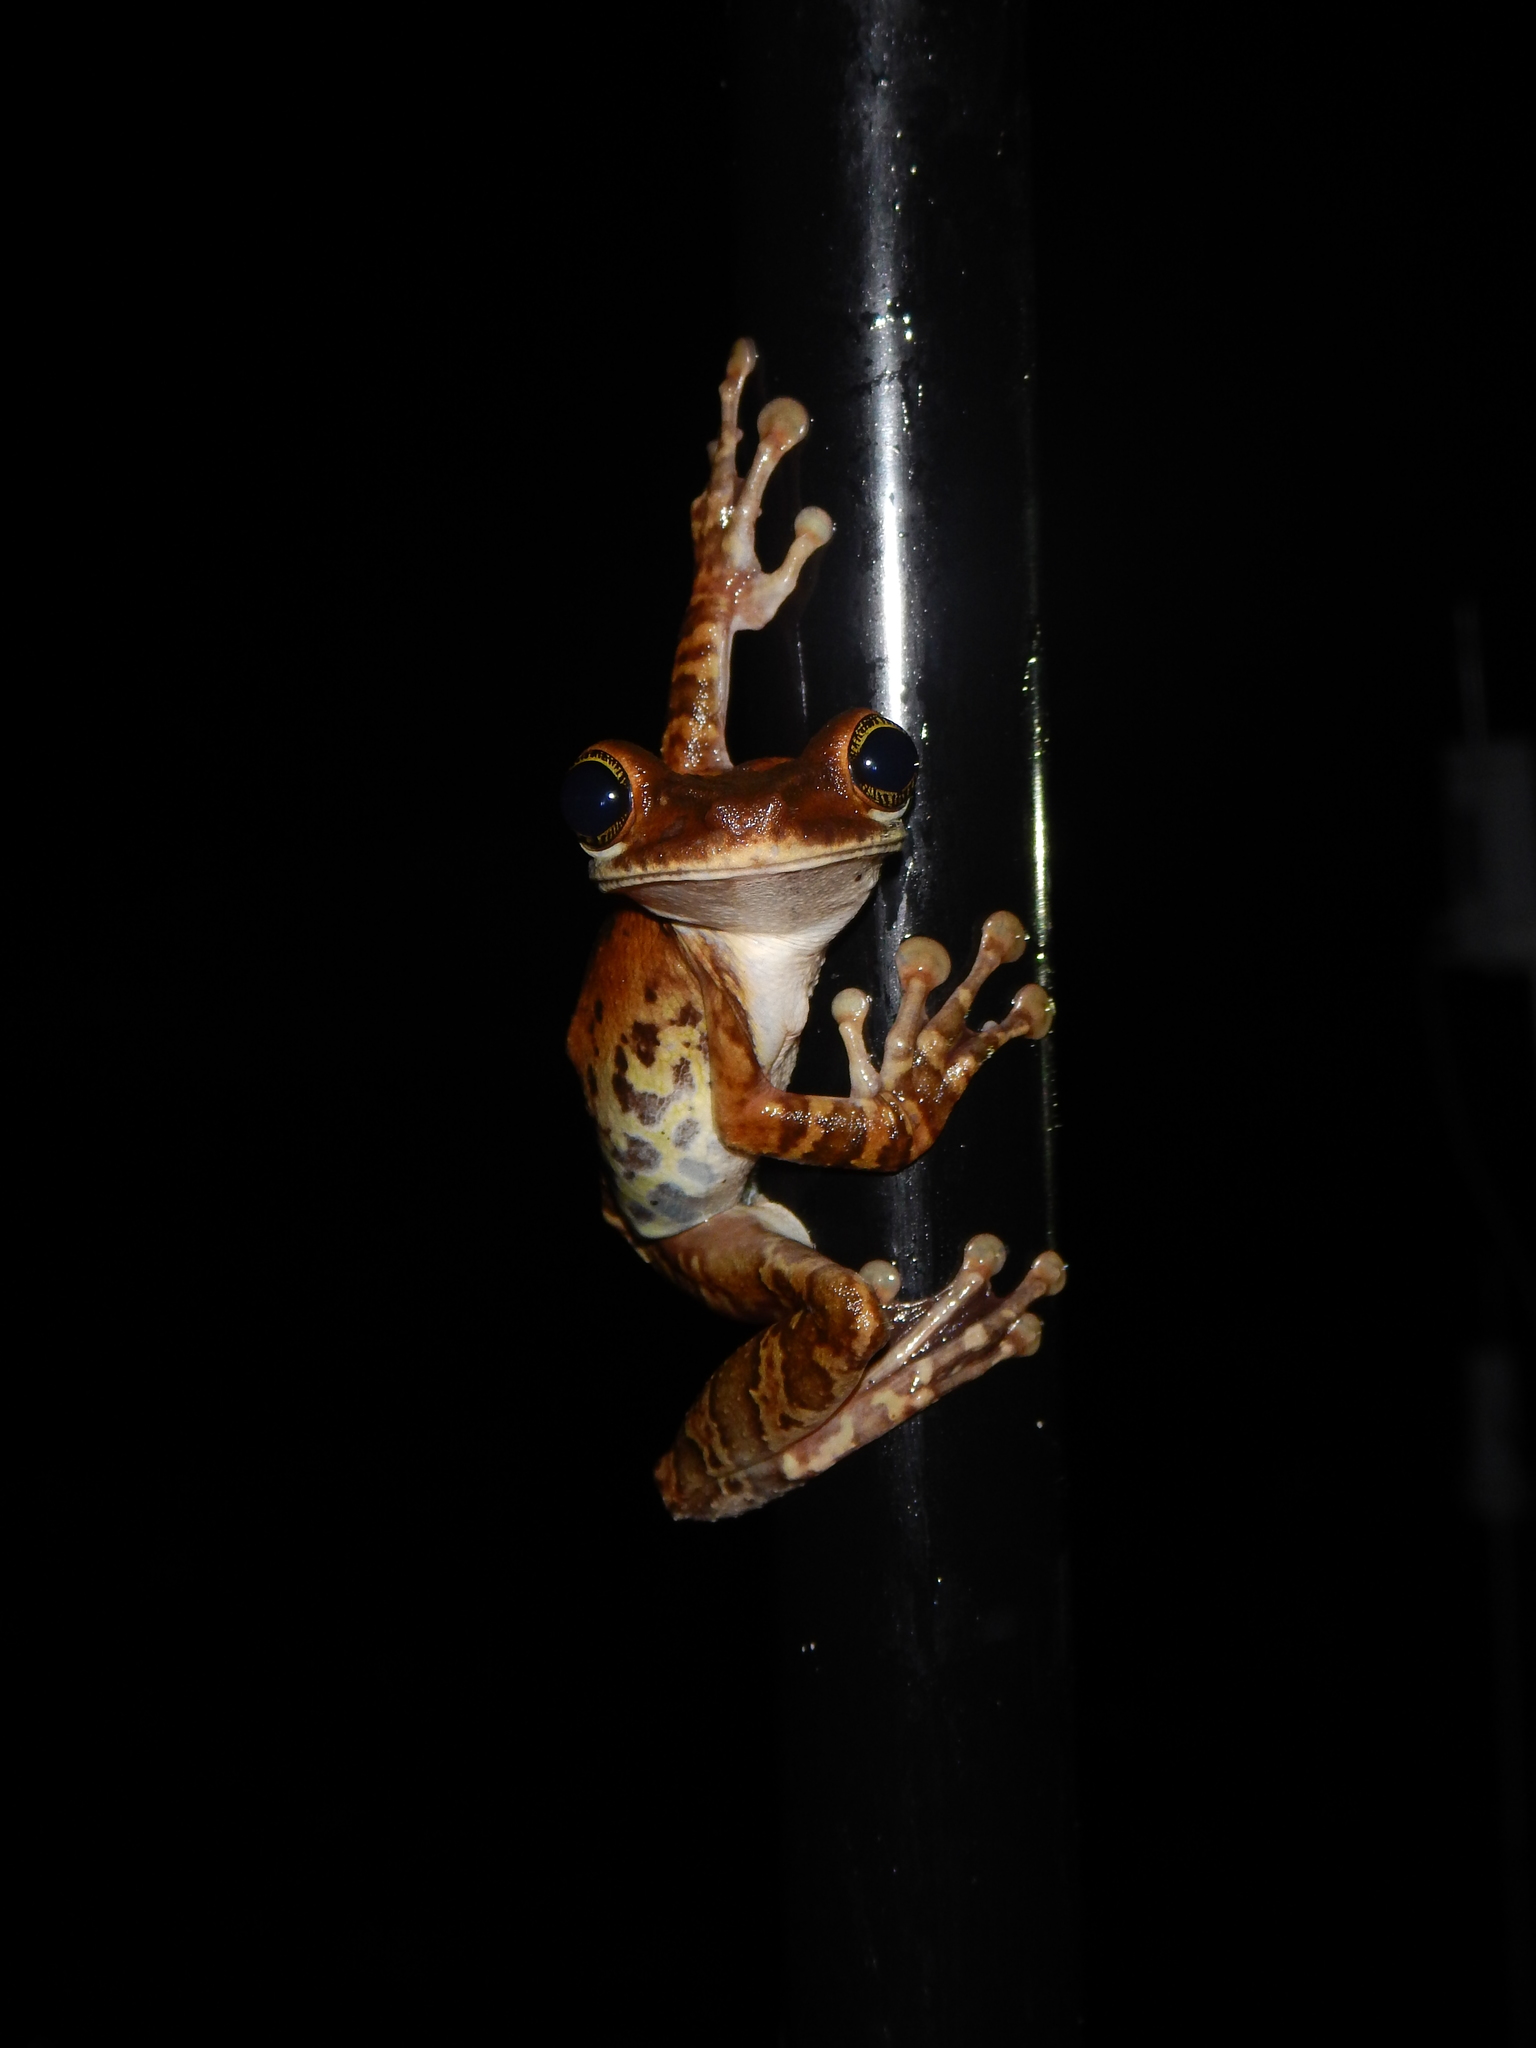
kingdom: Animalia
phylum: Chordata
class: Amphibia
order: Anura
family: Hylidae
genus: Osteocephalus
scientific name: Osteocephalus taurinus
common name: Manaus slender-legged treefrog
